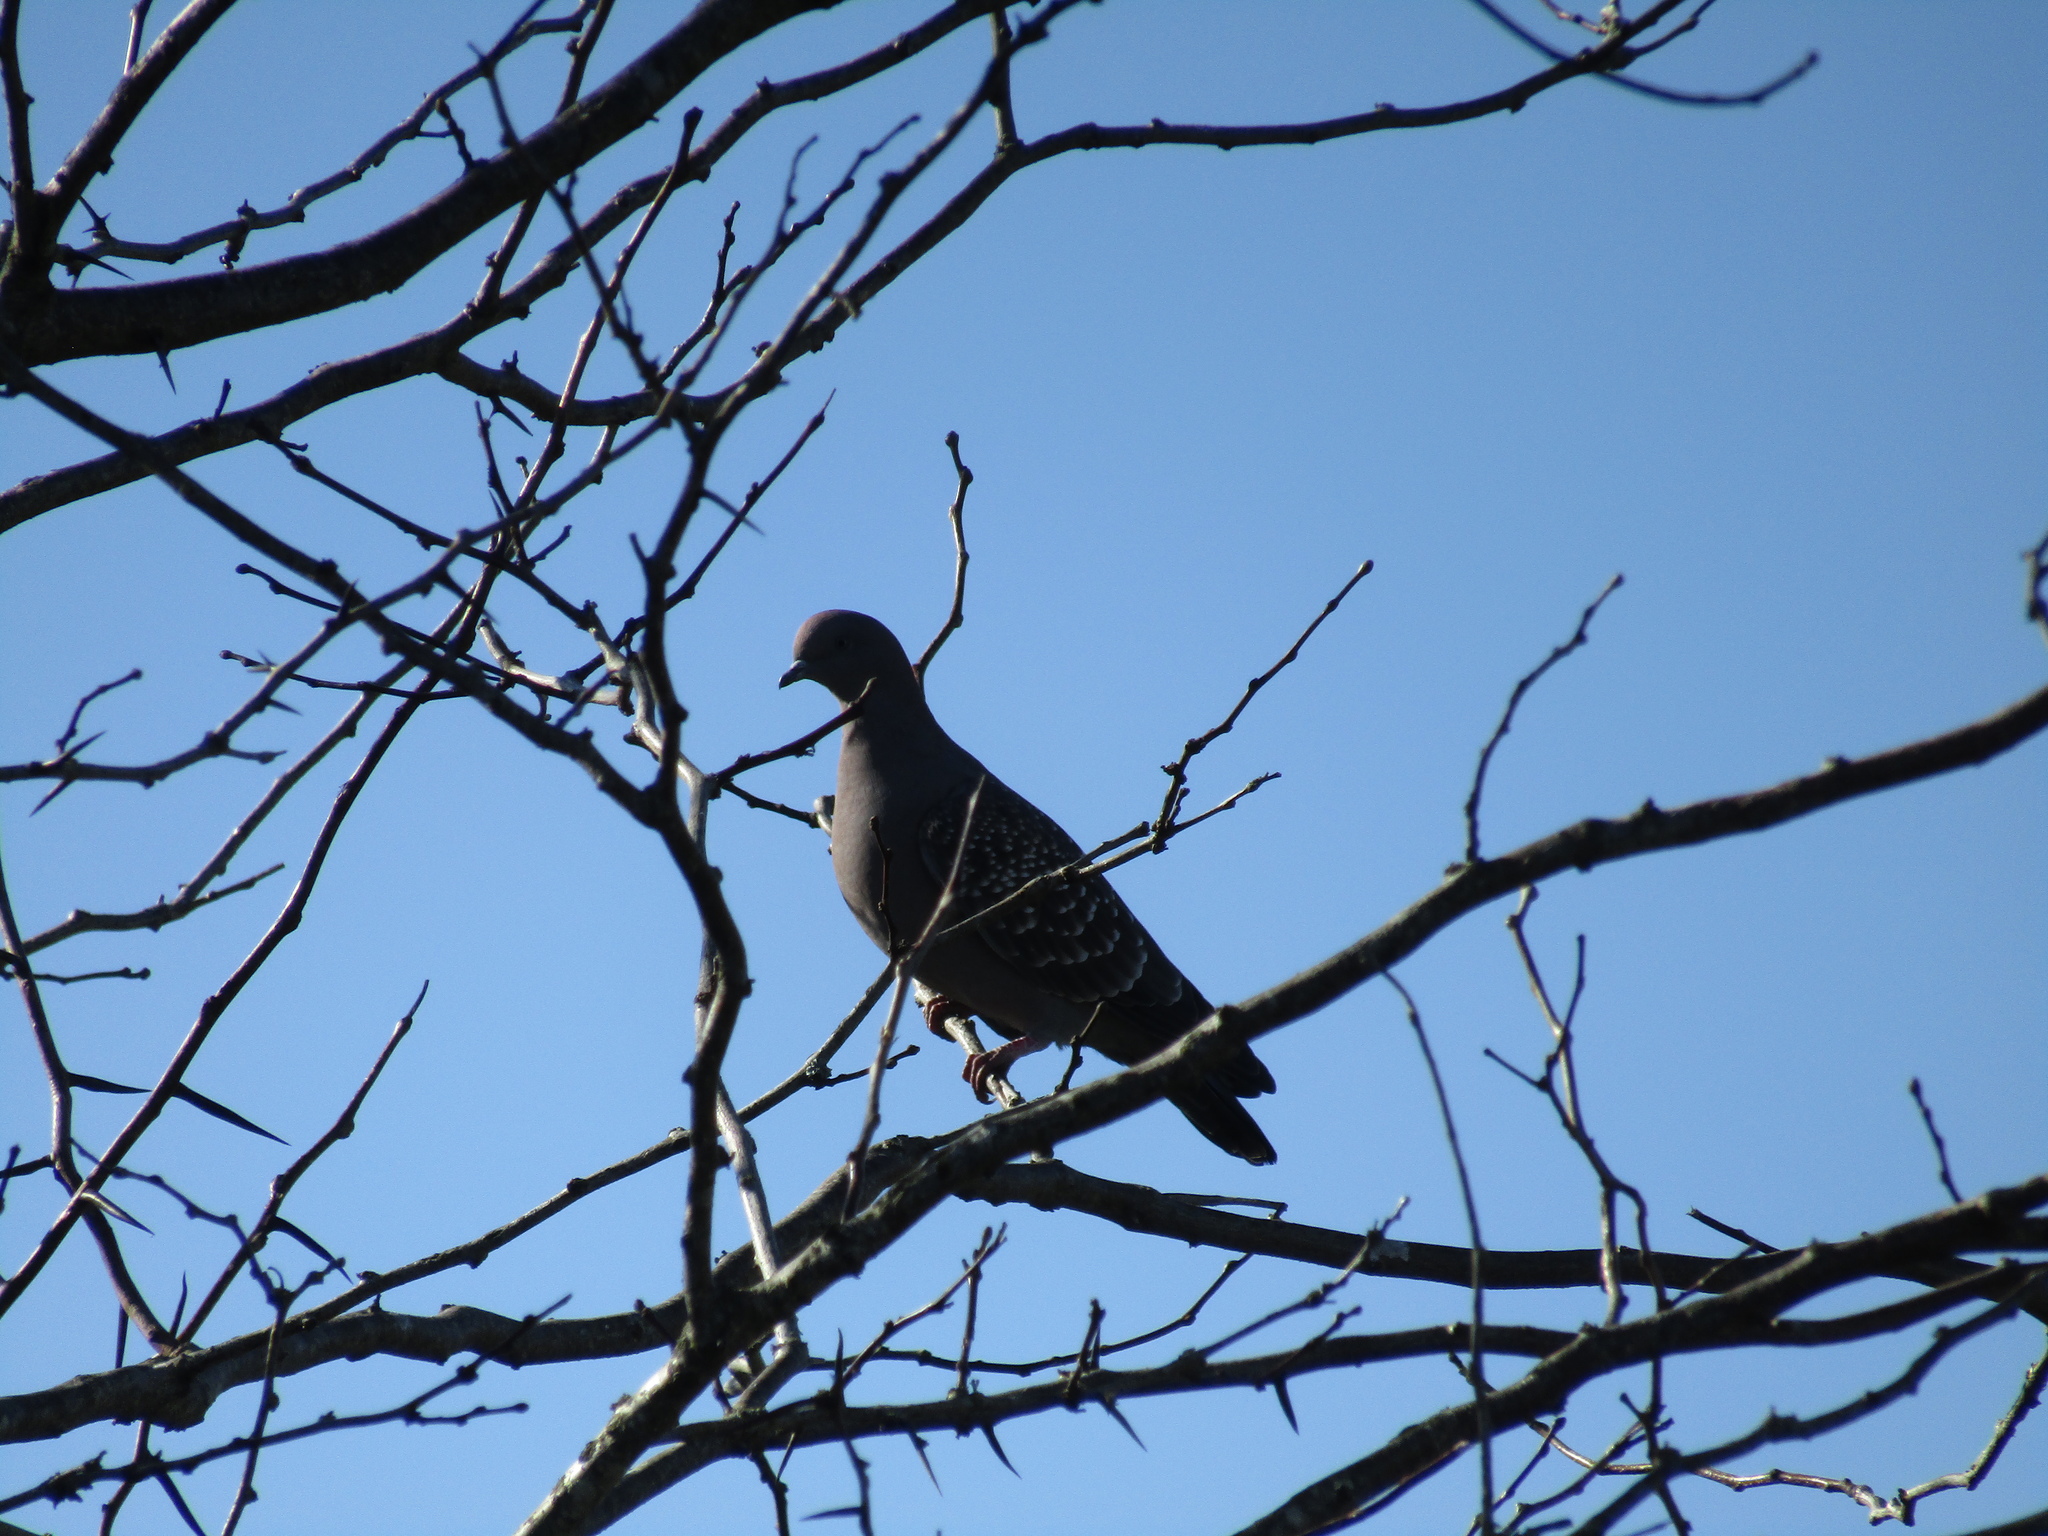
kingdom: Animalia
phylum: Chordata
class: Aves
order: Columbiformes
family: Columbidae
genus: Patagioenas
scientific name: Patagioenas maculosa
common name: Spot-winged pigeon
